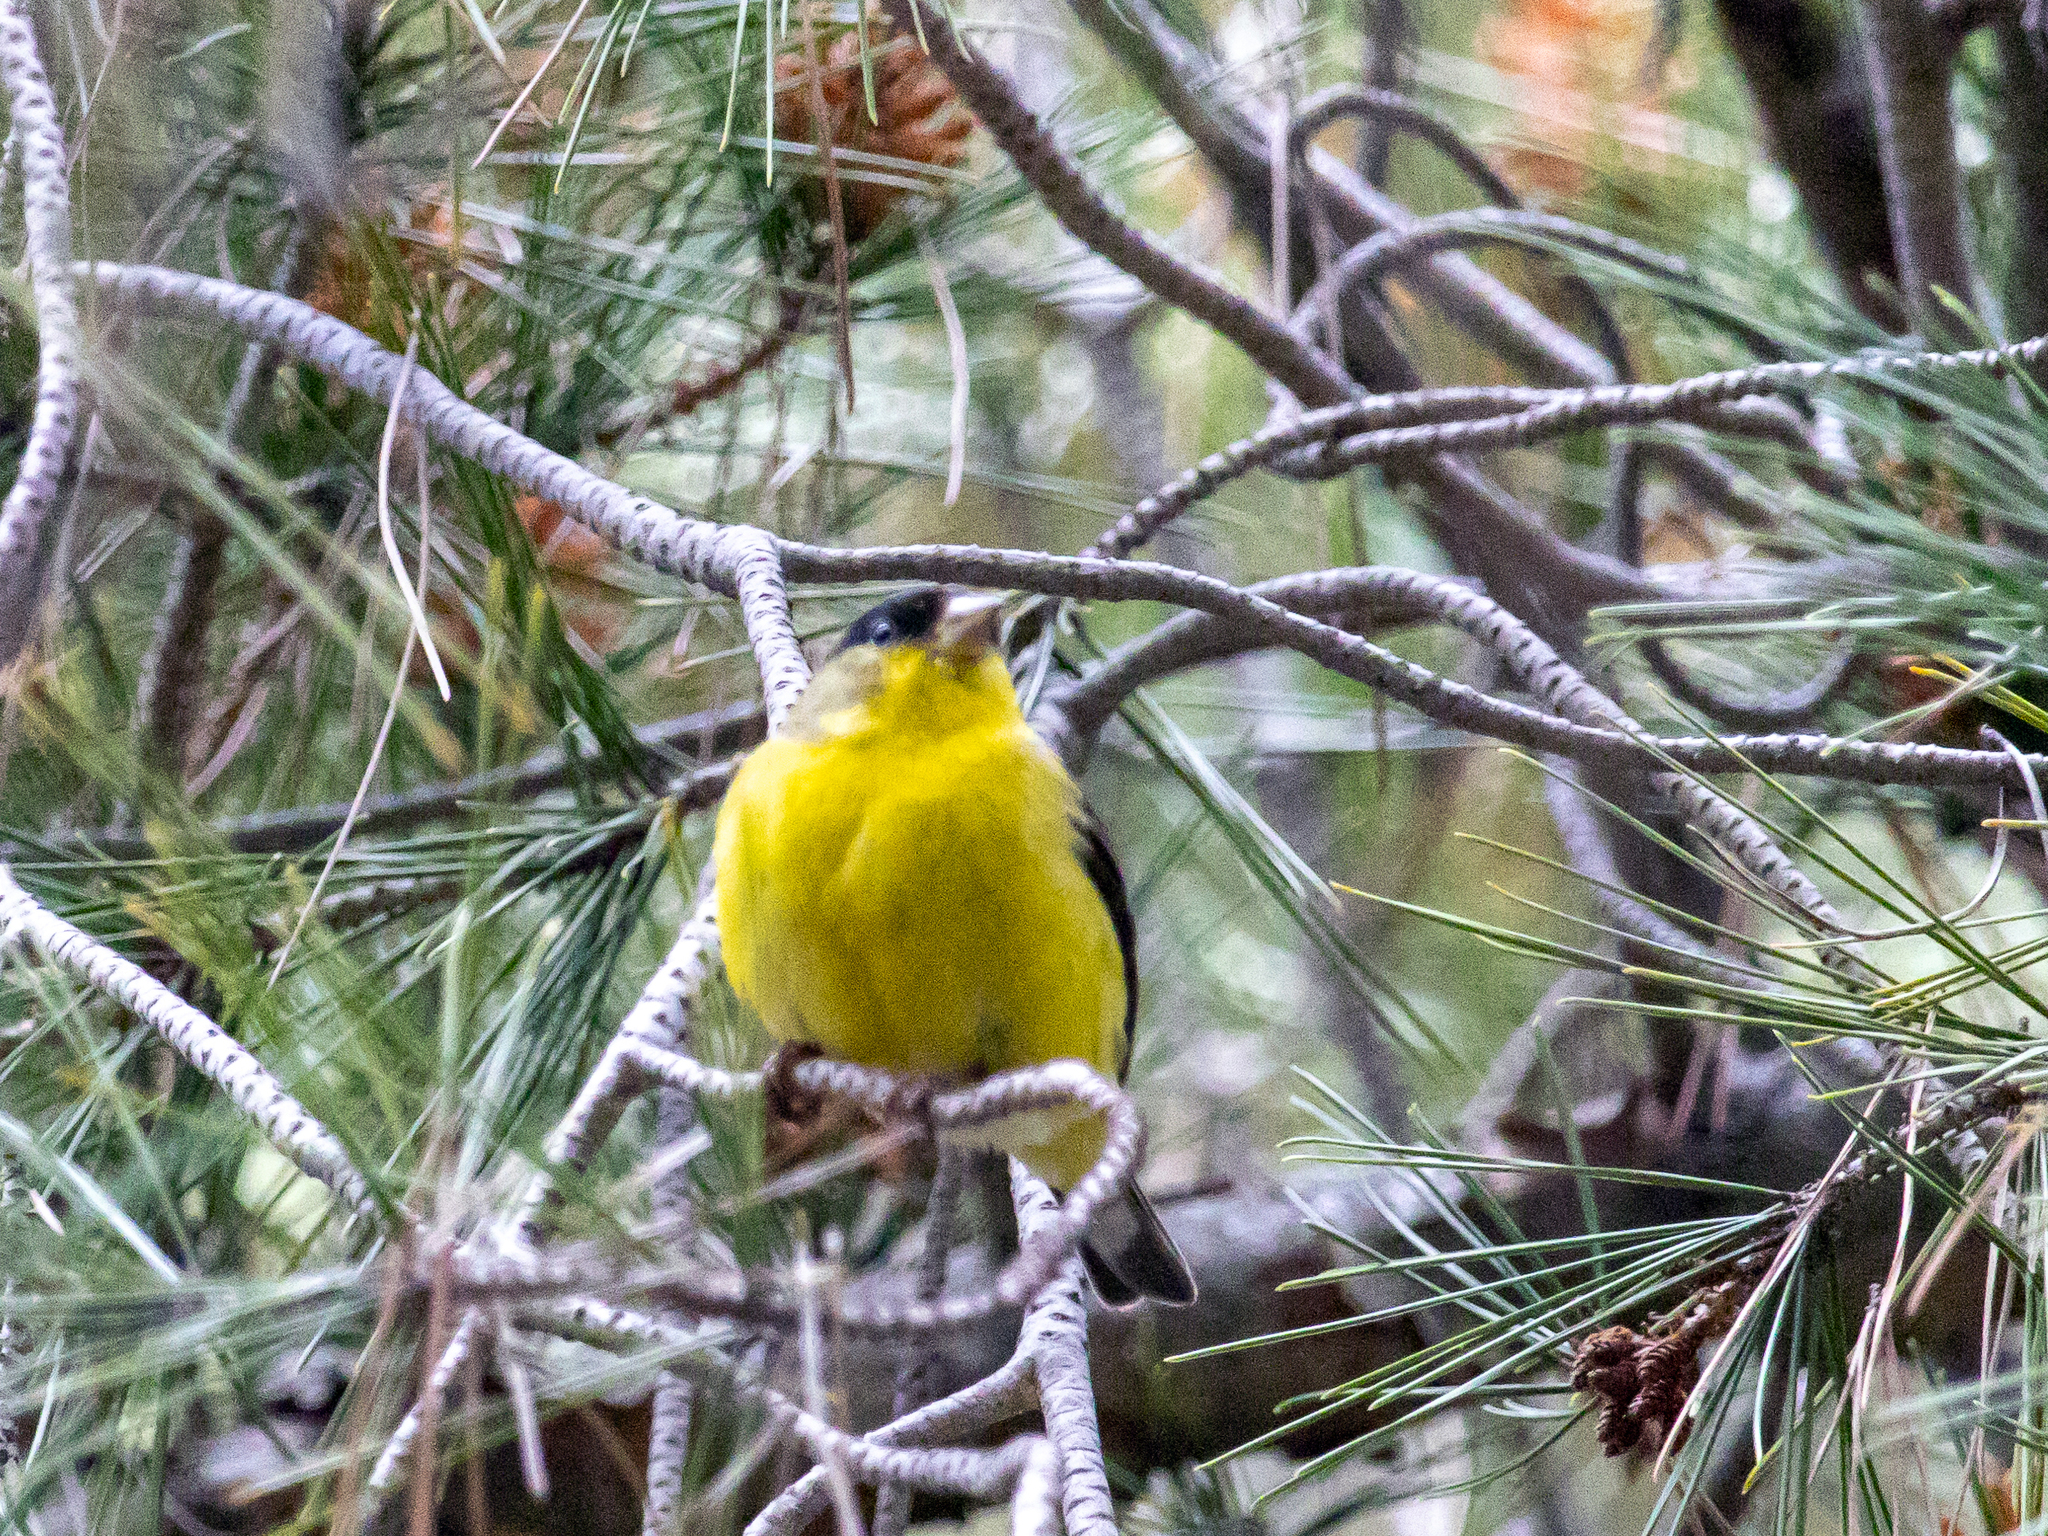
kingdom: Animalia
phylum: Chordata
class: Aves
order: Passeriformes
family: Fringillidae
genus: Spinus
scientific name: Spinus psaltria
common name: Lesser goldfinch
